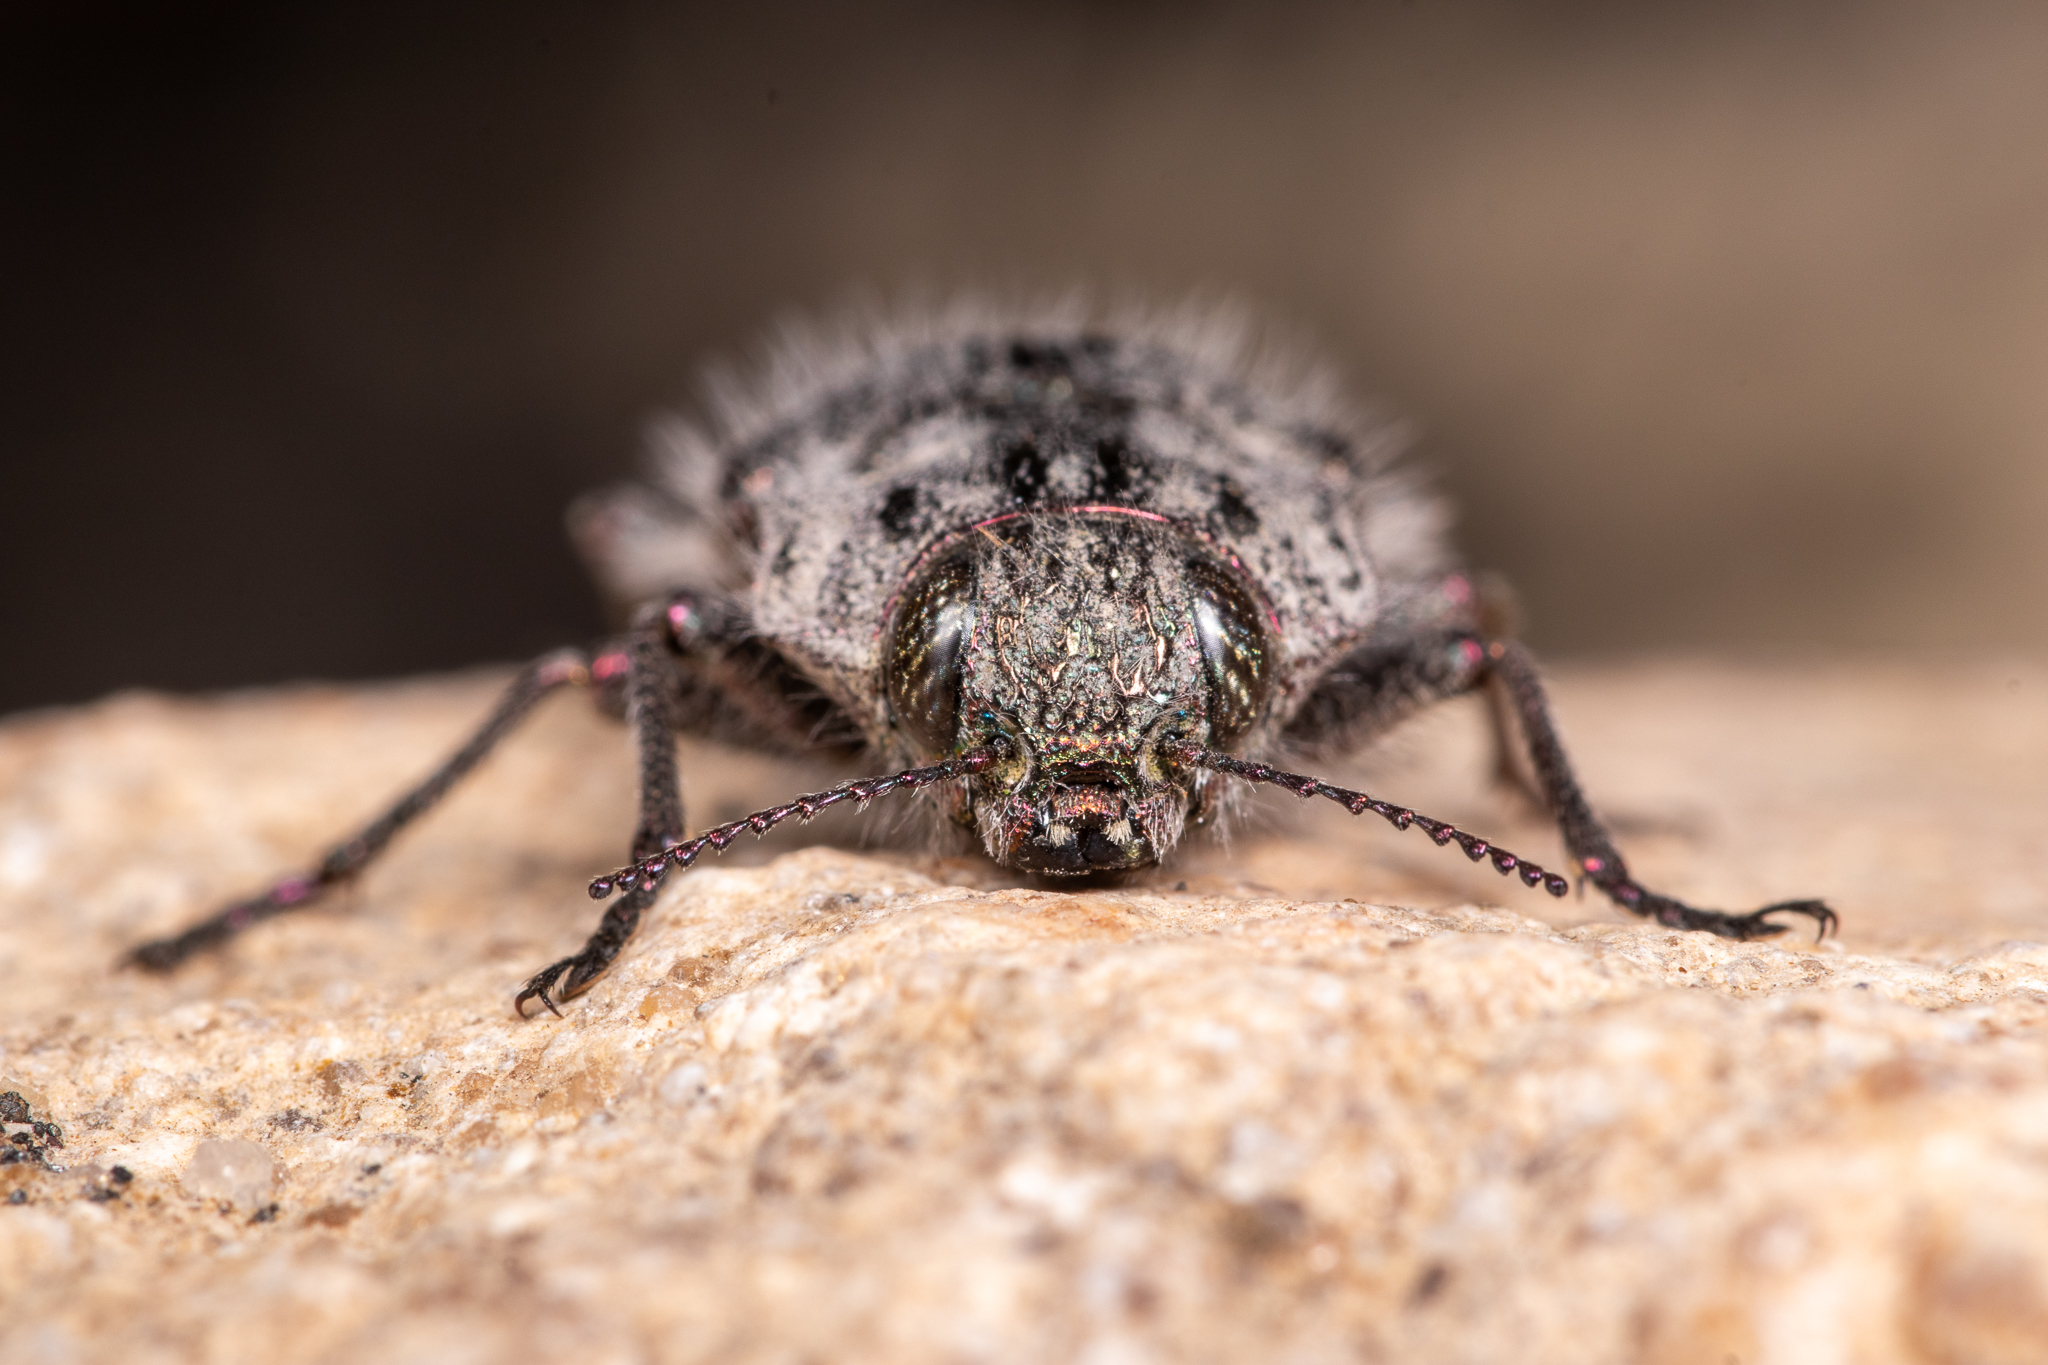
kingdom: Animalia
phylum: Arthropoda
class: Insecta
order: Coleoptera
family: Buprestidae
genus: Dicerca
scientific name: Dicerca querci
